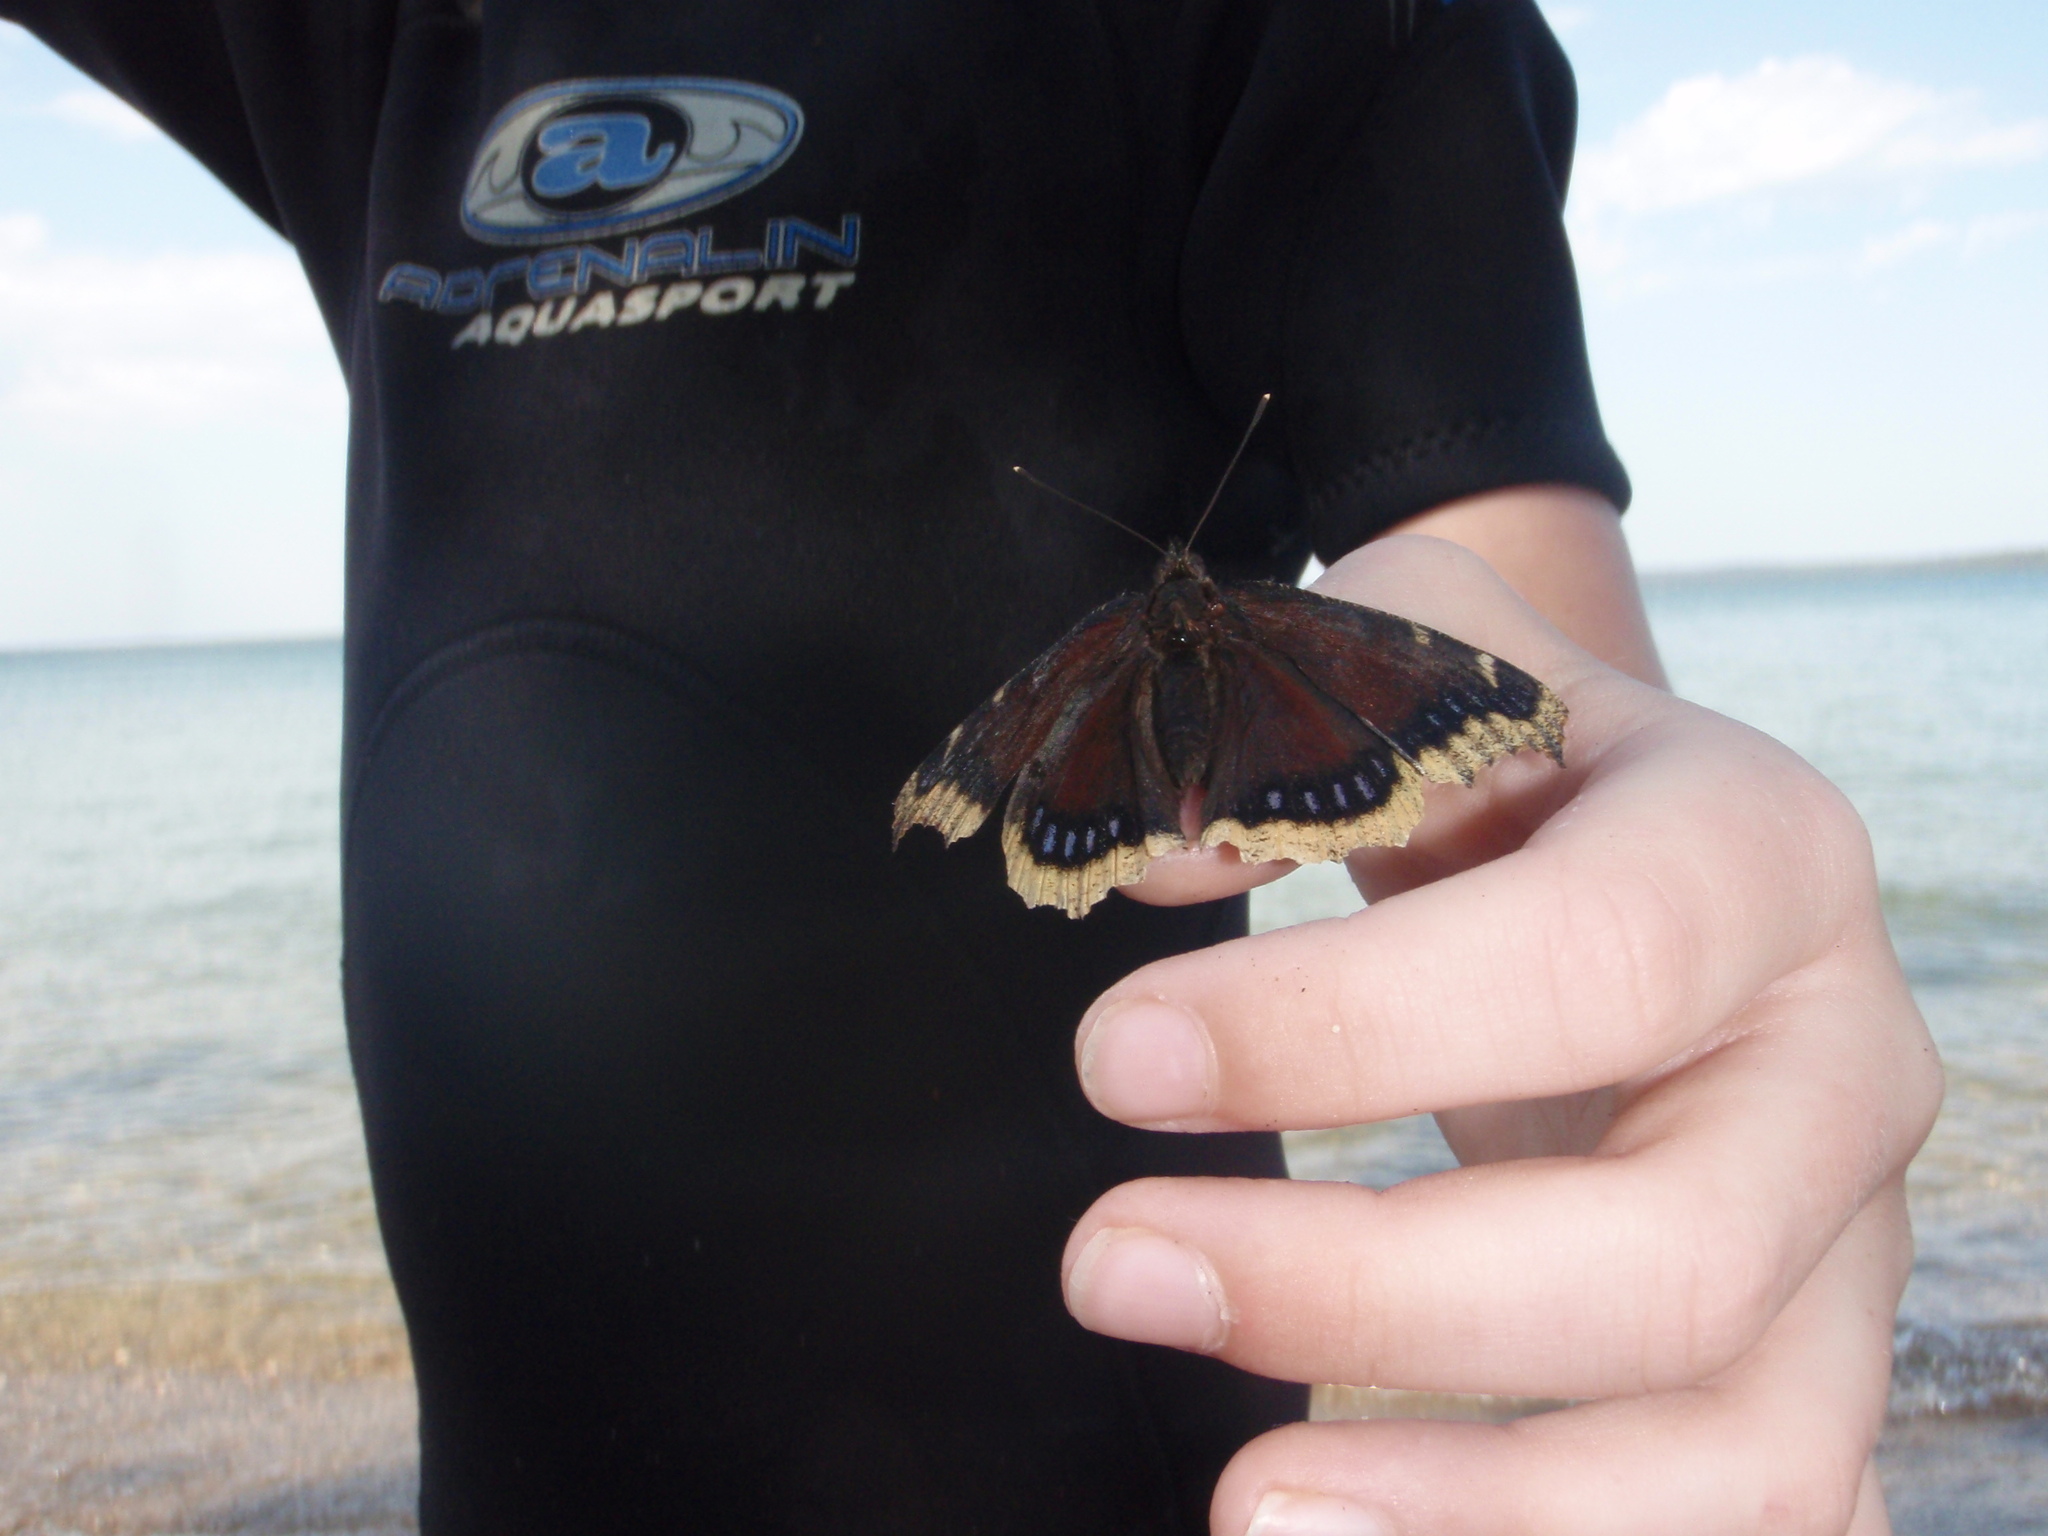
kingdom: Animalia
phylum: Arthropoda
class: Insecta
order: Lepidoptera
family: Nymphalidae
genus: Nymphalis
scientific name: Nymphalis antiopa
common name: Camberwell beauty
